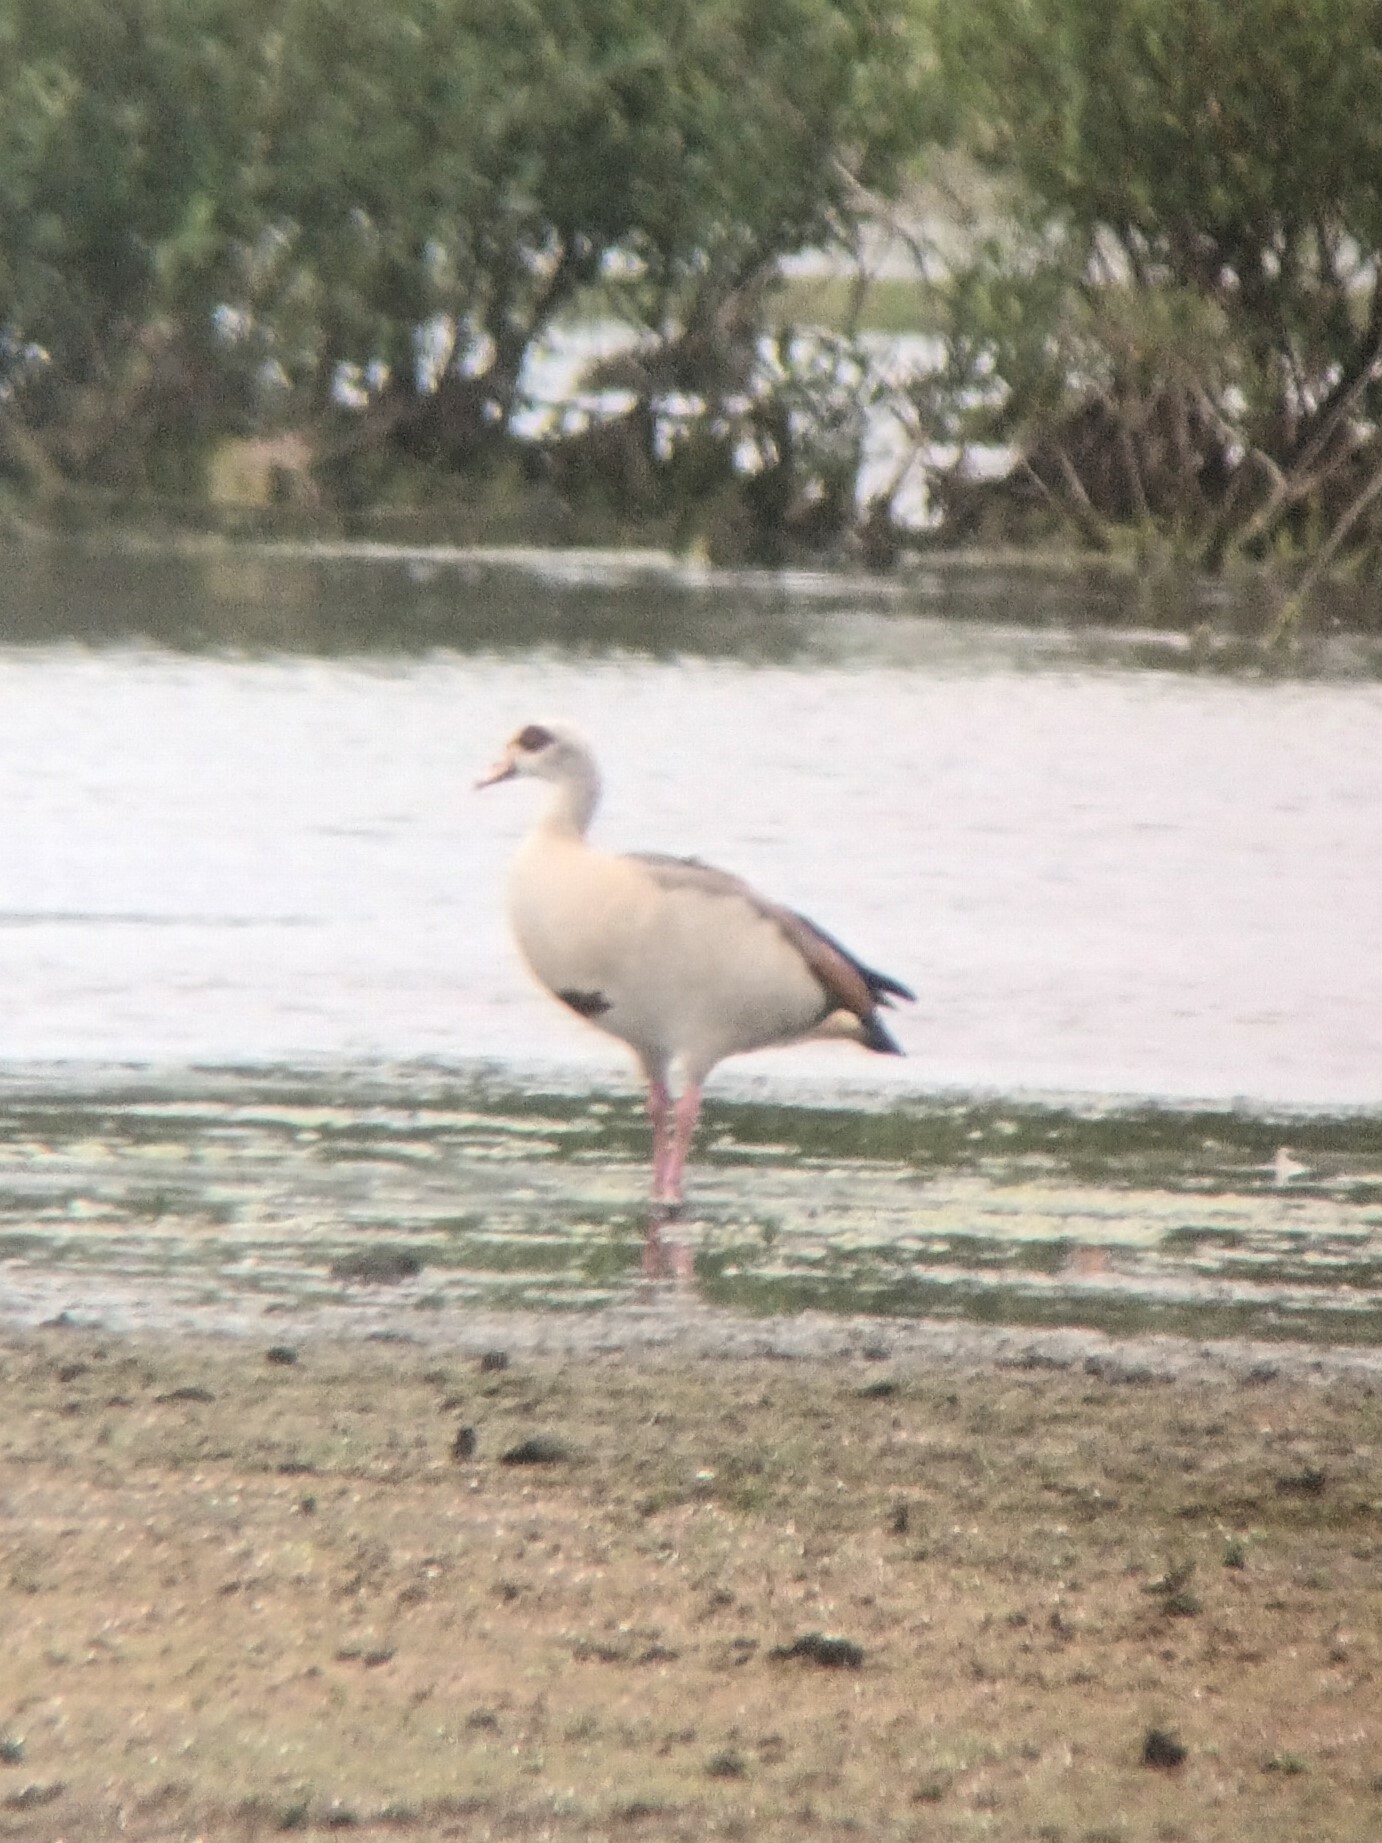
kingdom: Animalia
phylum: Chordata
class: Aves
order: Anseriformes
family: Anatidae
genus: Alopochen
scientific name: Alopochen aegyptiaca
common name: Egyptian goose
